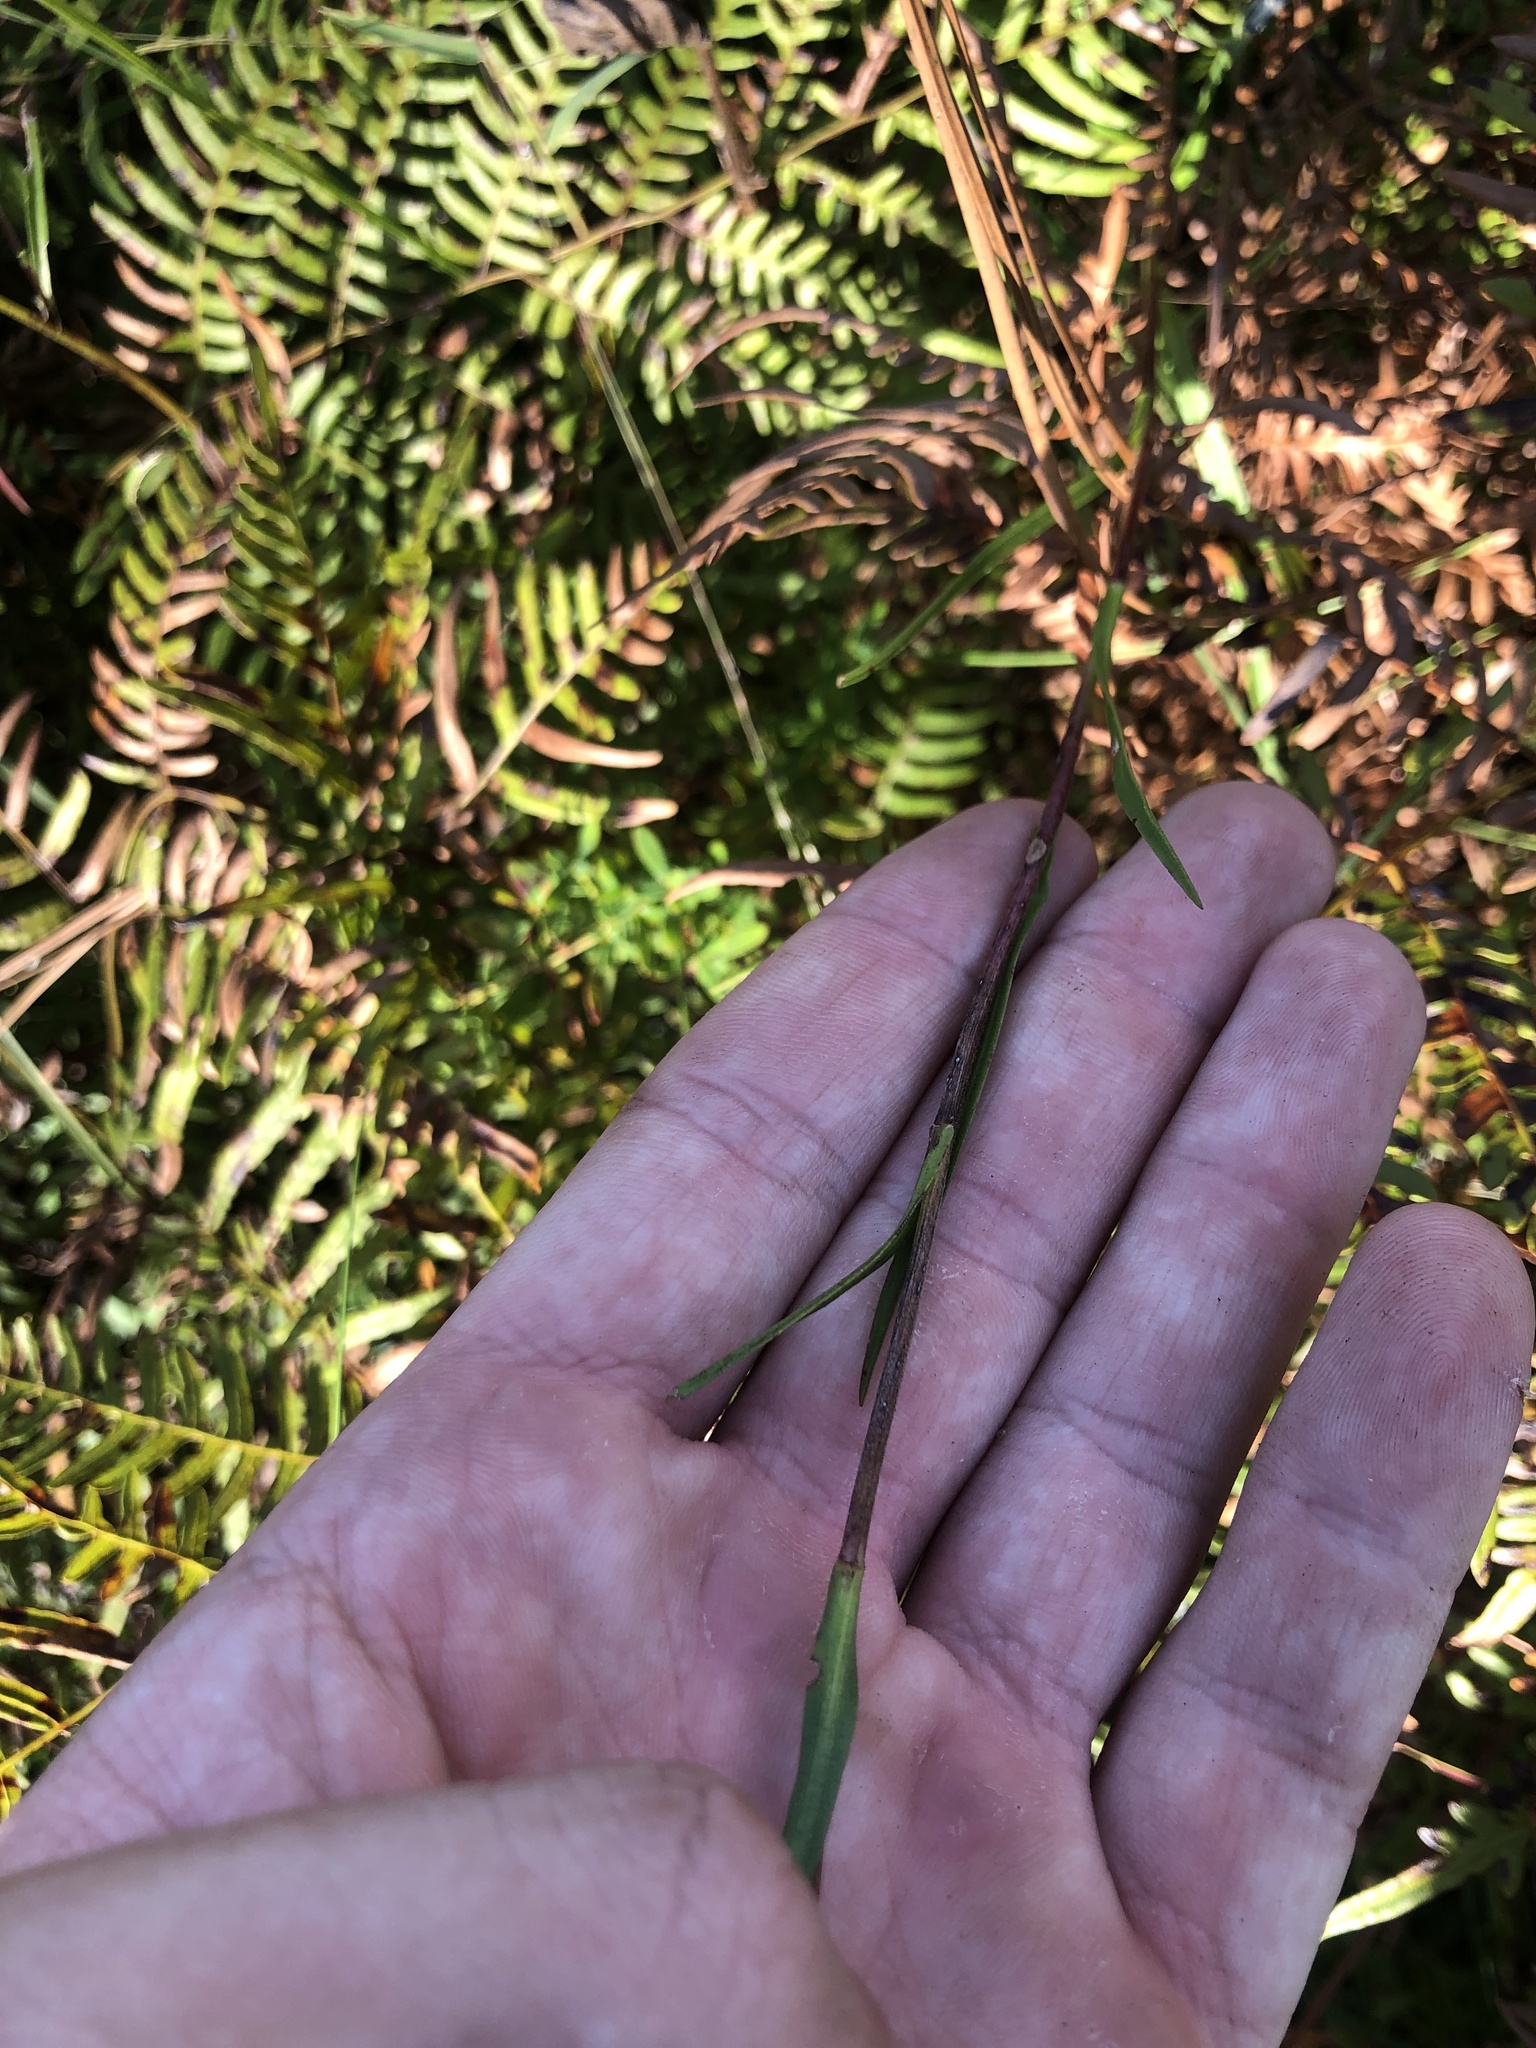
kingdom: Plantae
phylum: Tracheophyta
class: Magnoliopsida
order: Asterales
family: Asteraceae
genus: Eurybia
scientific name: Eurybia paludosa
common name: Southern swamp aster
